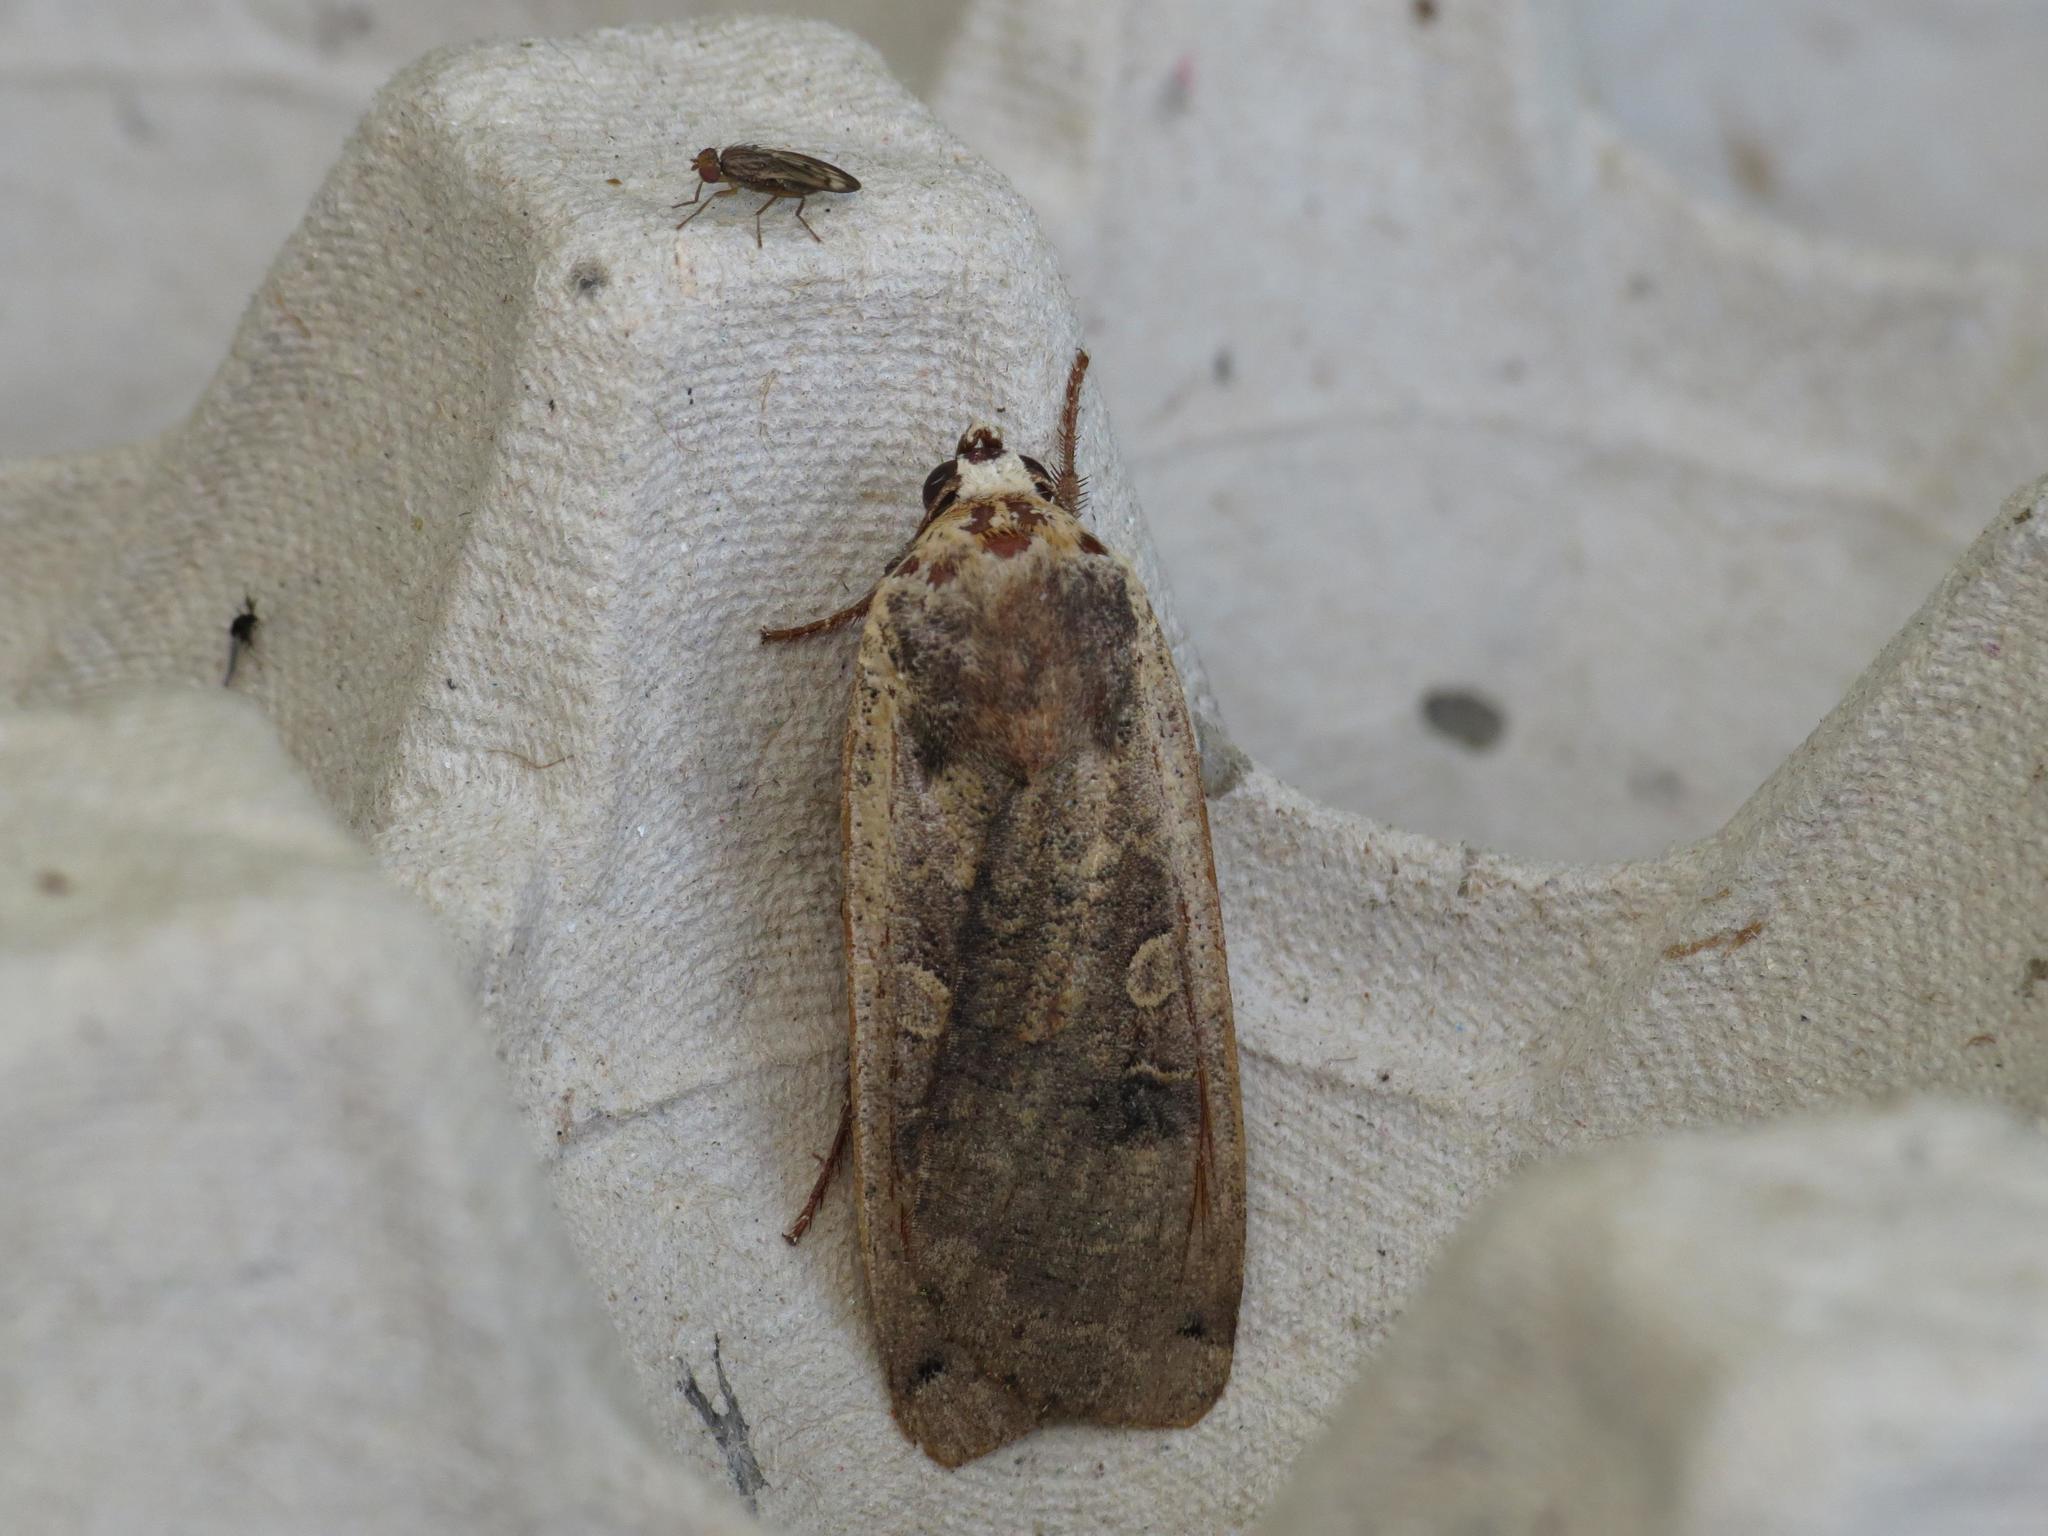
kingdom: Animalia
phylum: Arthropoda
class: Insecta
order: Lepidoptera
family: Noctuidae
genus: Noctua
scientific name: Noctua pronuba
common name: Large yellow underwing
